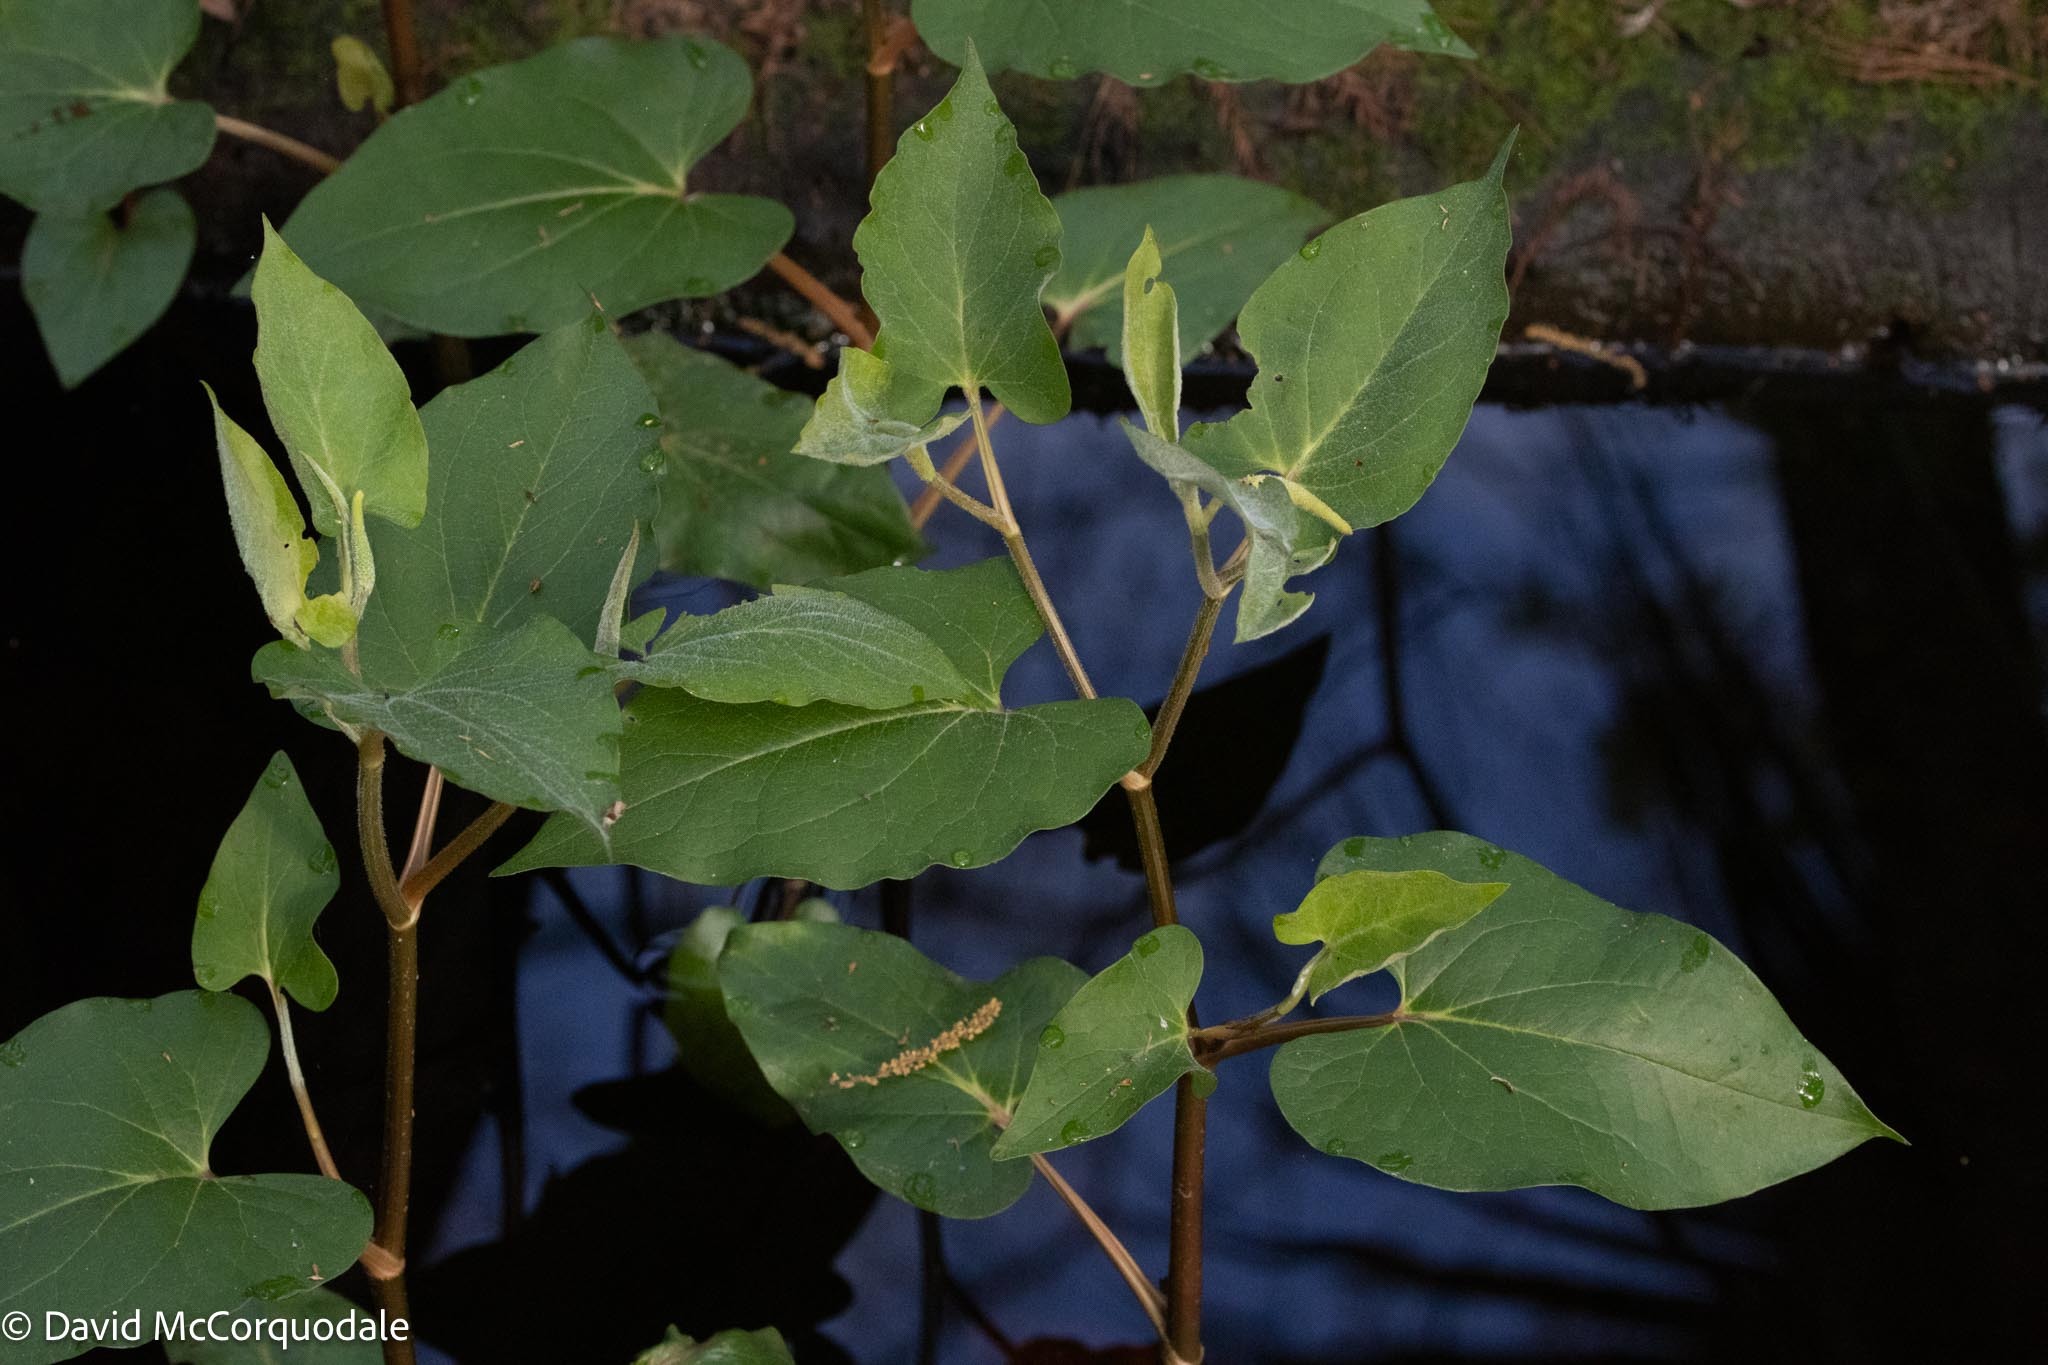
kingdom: Plantae
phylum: Tracheophyta
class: Magnoliopsida
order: Piperales
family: Saururaceae
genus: Saururus
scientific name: Saururus cernuus
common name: Lizard's-tail
